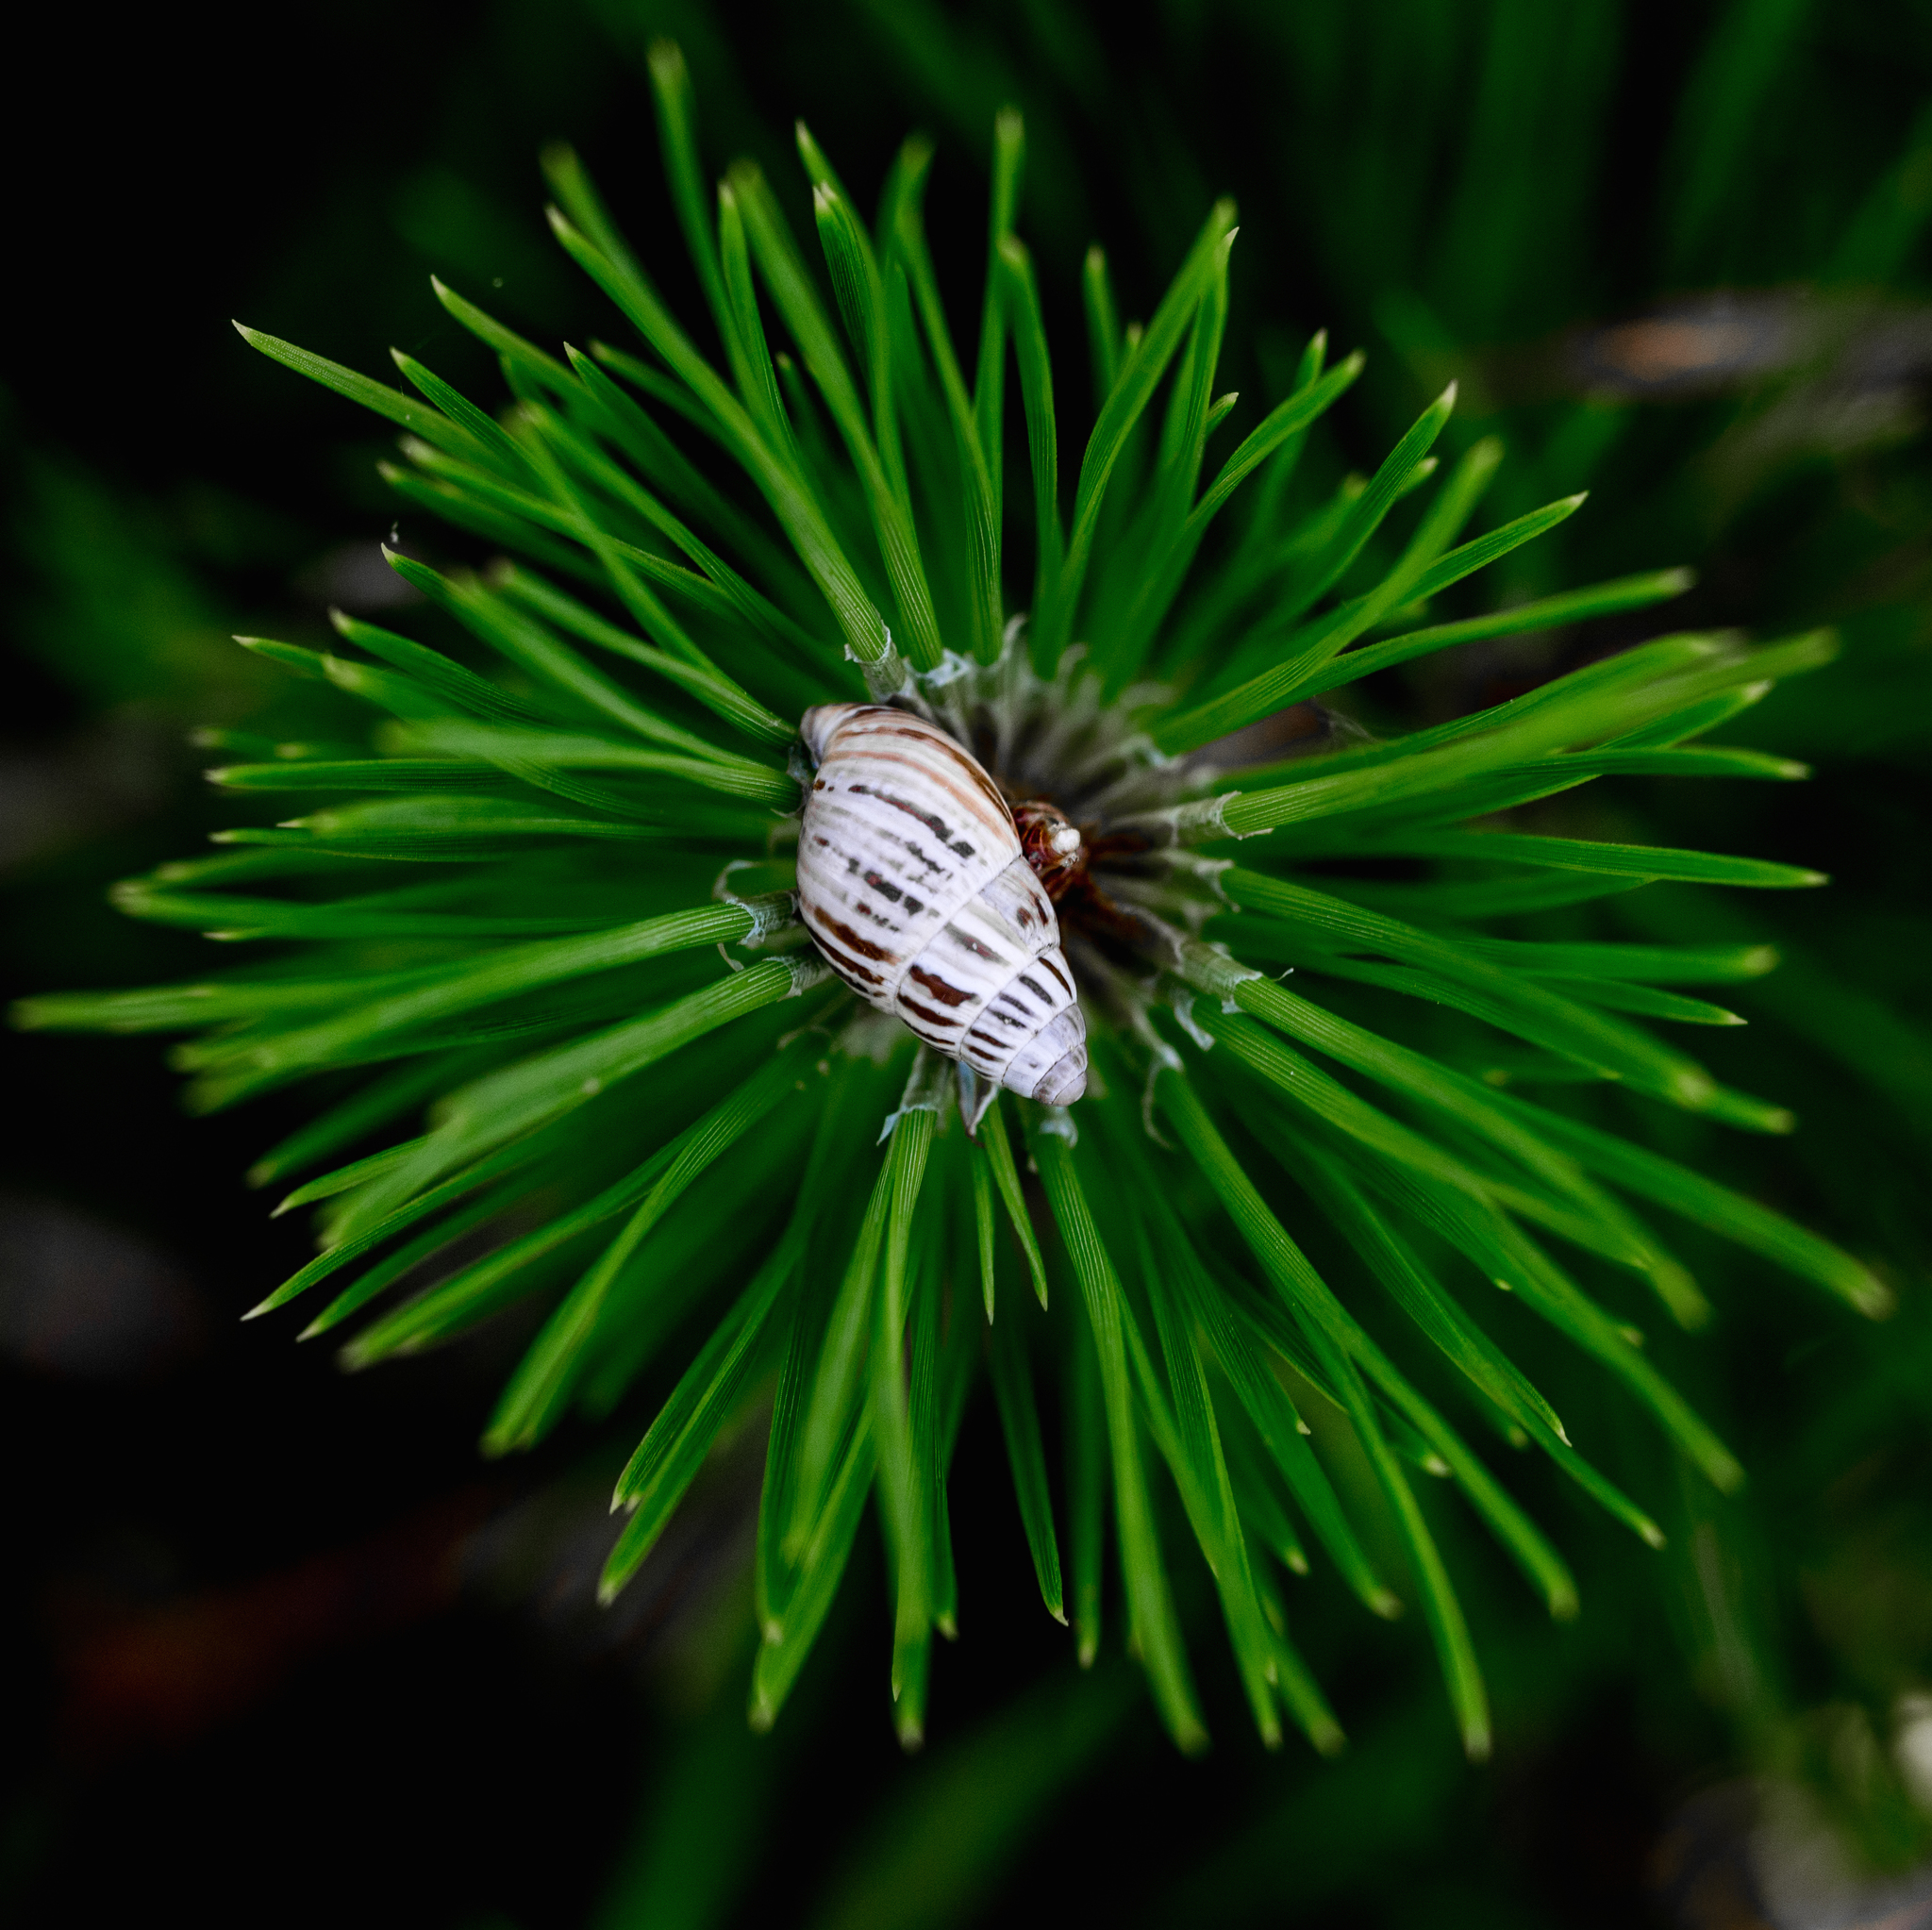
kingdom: Animalia
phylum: Mollusca
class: Gastropoda
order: Stylommatophora
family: Enidae
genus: Zebrina
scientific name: Zebrina detrita
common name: Large bulin
